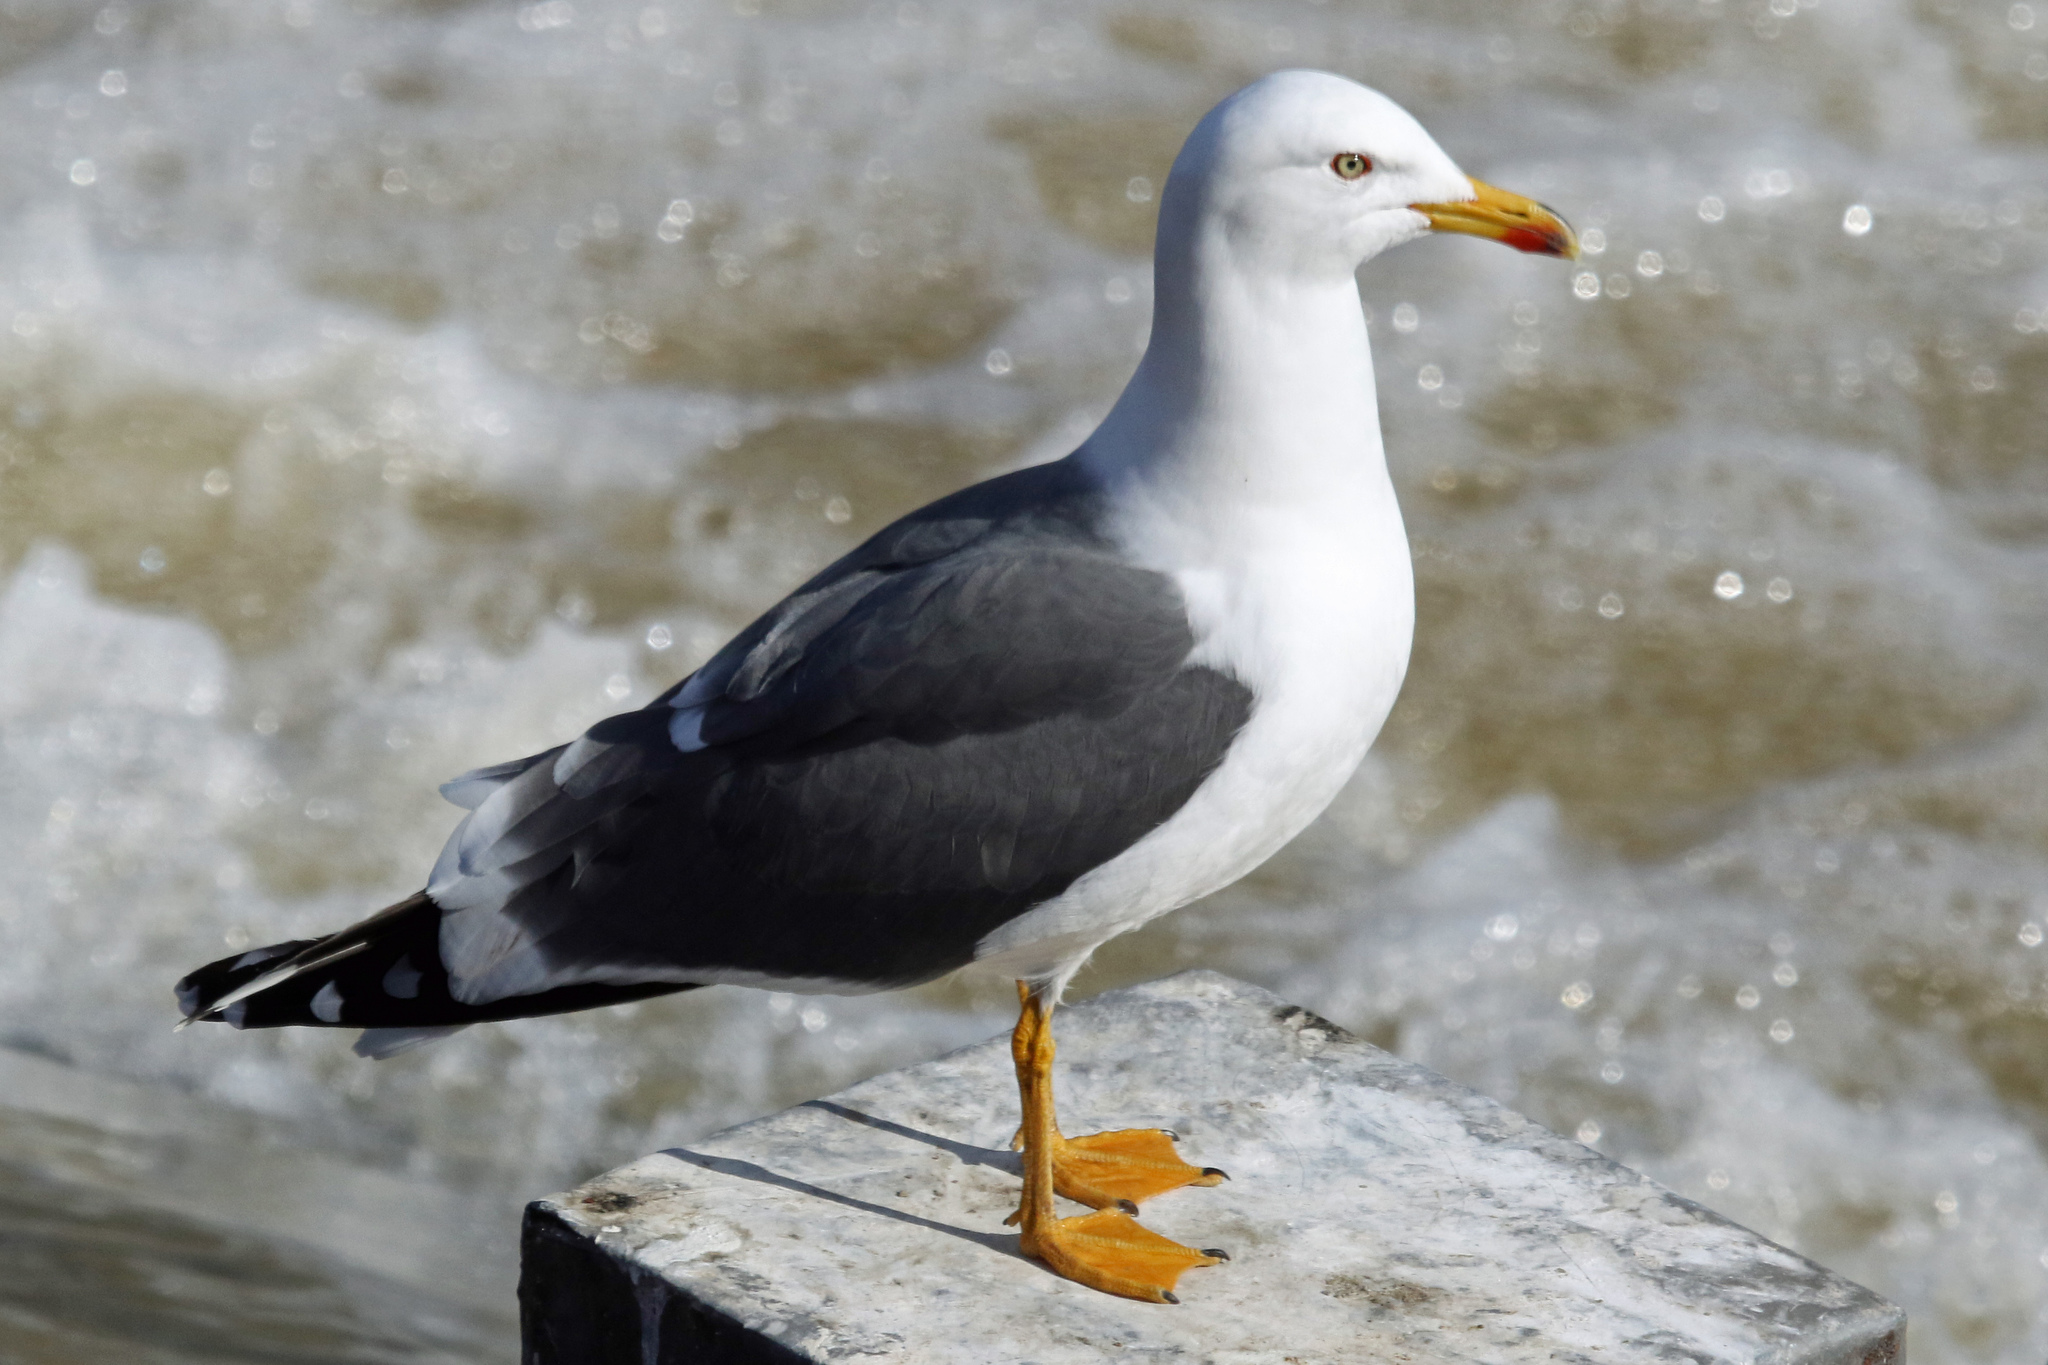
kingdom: Animalia
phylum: Chordata
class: Aves
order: Charadriiformes
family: Laridae
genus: Larus
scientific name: Larus fuscus
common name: Lesser black-backed gull
